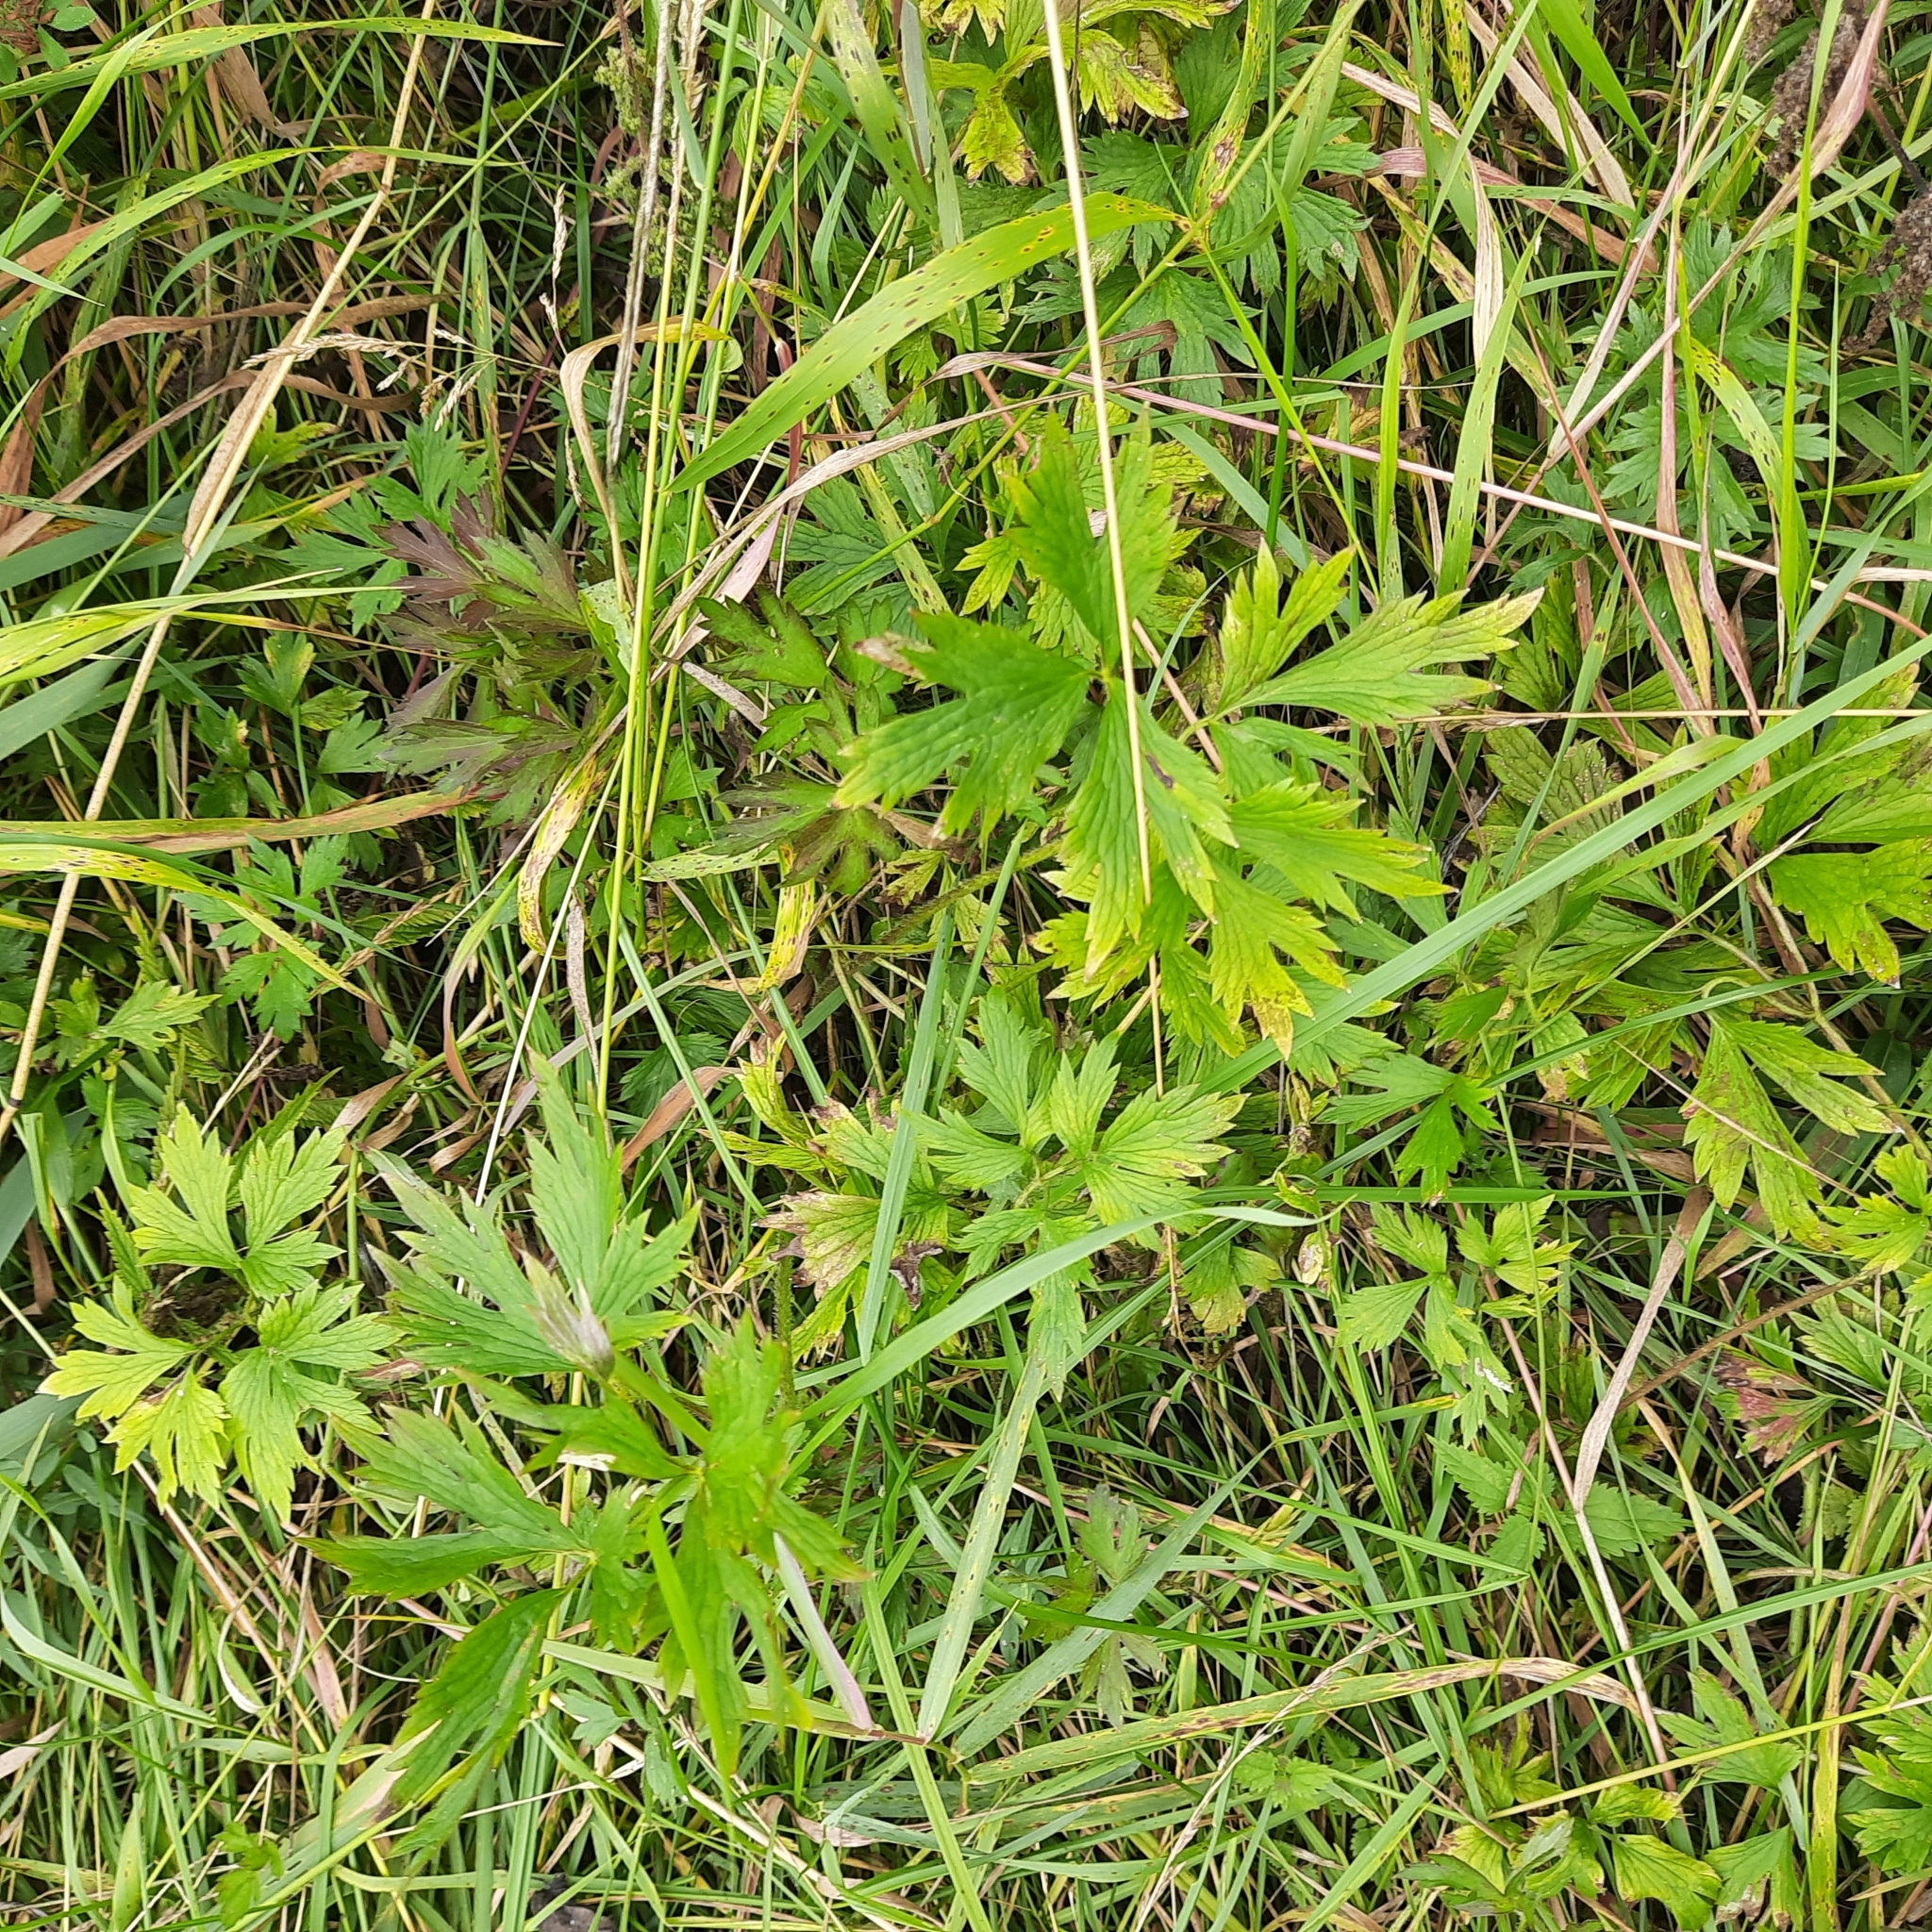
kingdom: Plantae
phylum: Tracheophyta
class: Magnoliopsida
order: Ranunculales
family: Ranunculaceae
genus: Ranunculus
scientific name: Ranunculus repens
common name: Creeping buttercup
